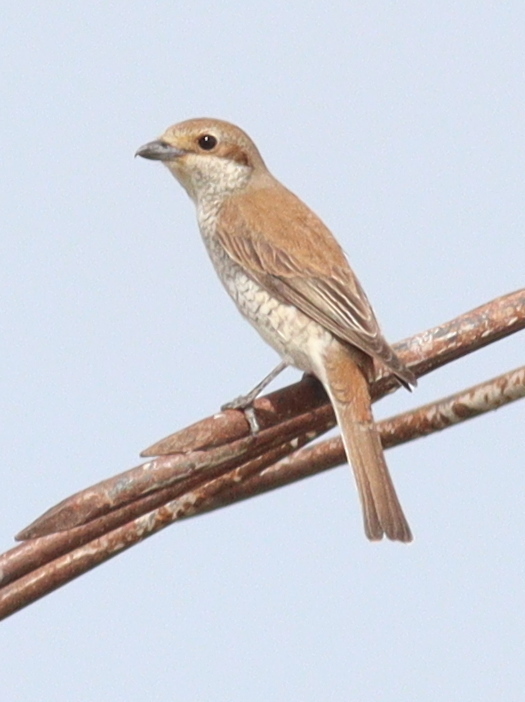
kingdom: Animalia
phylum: Chordata
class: Aves
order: Passeriformes
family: Laniidae
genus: Lanius
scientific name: Lanius collurio
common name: Red-backed shrike
